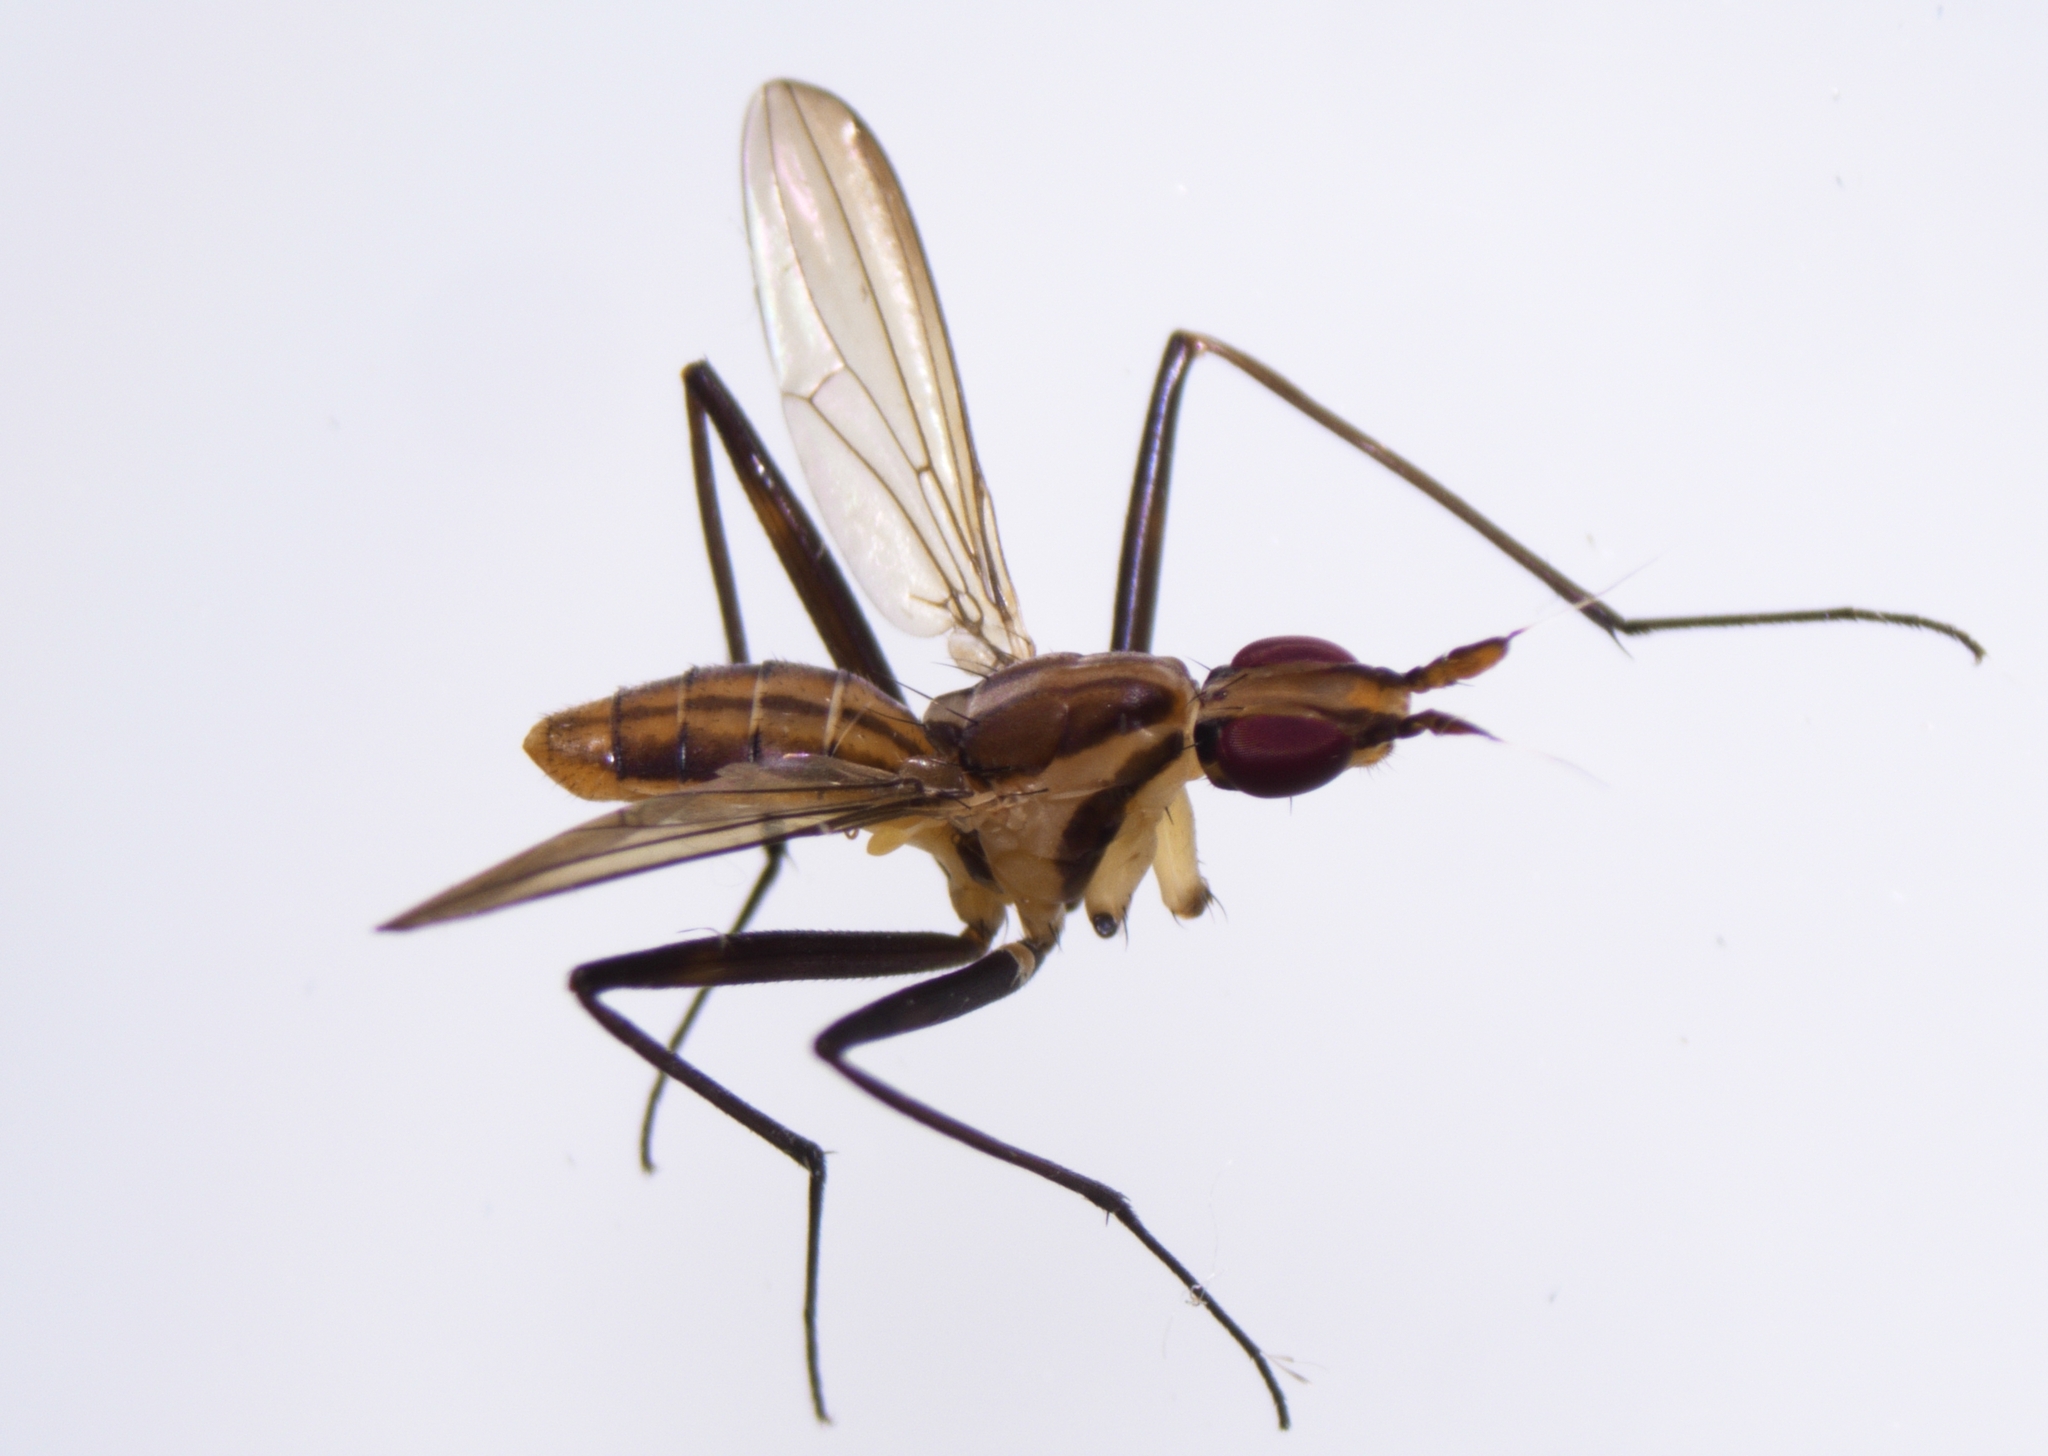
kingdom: Animalia
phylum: Arthropoda
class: Insecta
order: Diptera
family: Neriidae
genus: Telostylinus
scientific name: Telostylinus lineolatus
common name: Banana stalk fly
